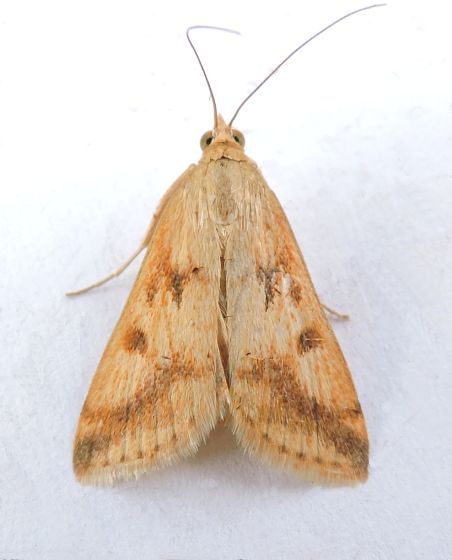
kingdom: Animalia
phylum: Arthropoda
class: Insecta
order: Lepidoptera
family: Crambidae
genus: Achyra
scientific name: Achyra bifidalis
